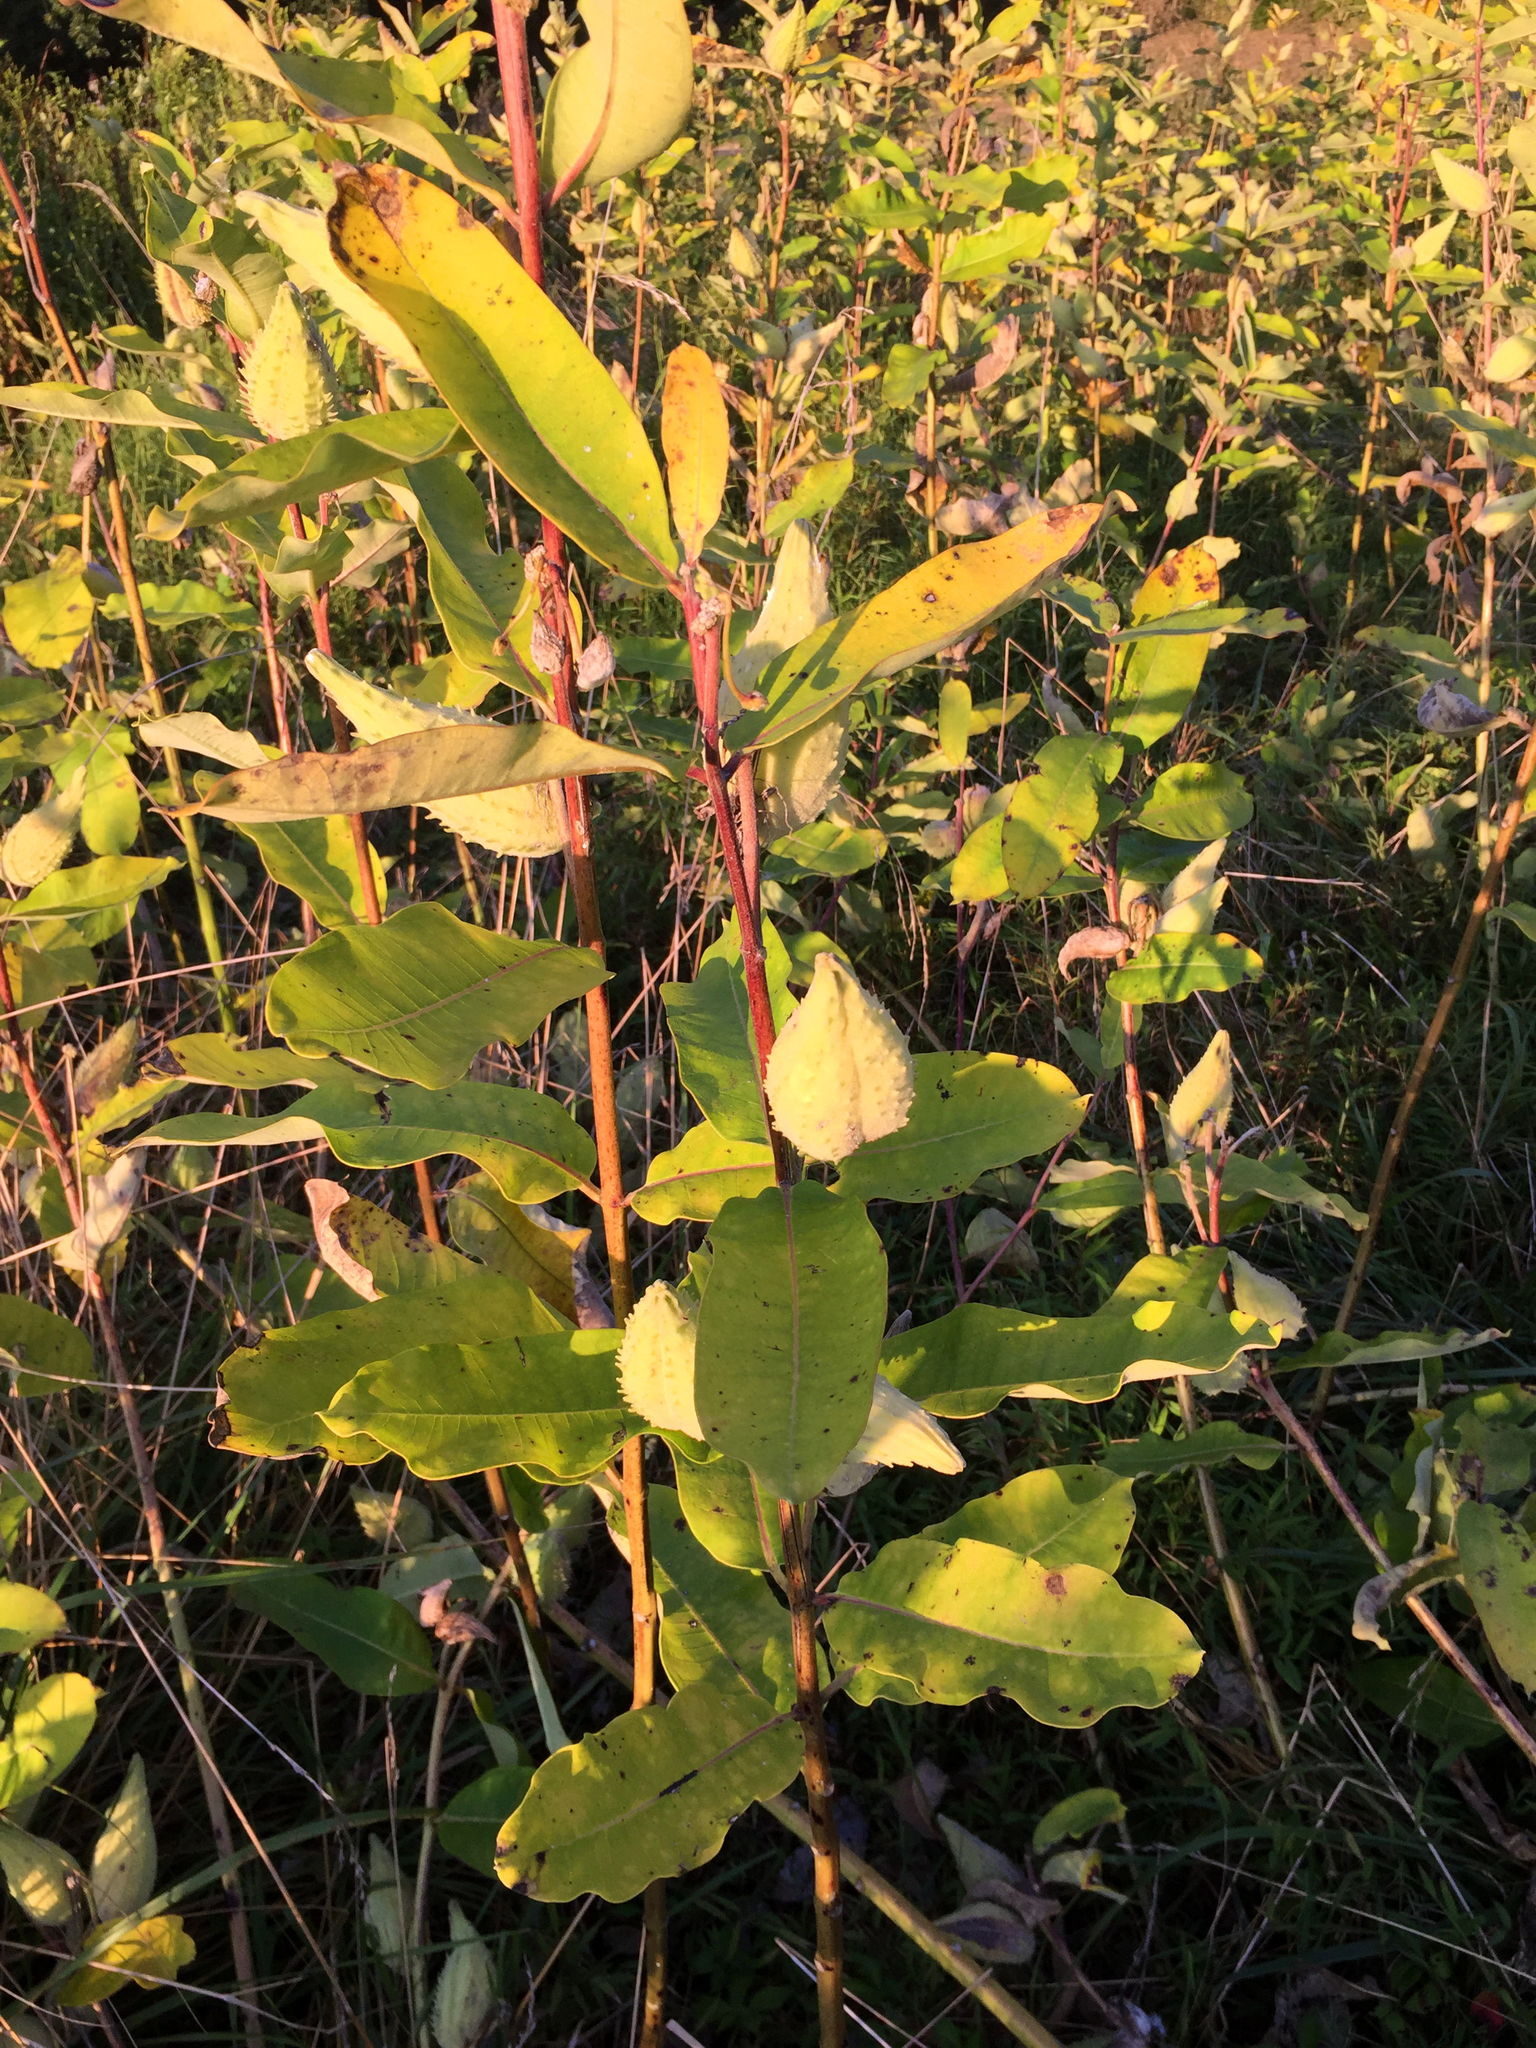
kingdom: Plantae
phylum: Tracheophyta
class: Magnoliopsida
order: Gentianales
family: Apocynaceae
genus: Asclepias
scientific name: Asclepias syriaca
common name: Common milkweed
